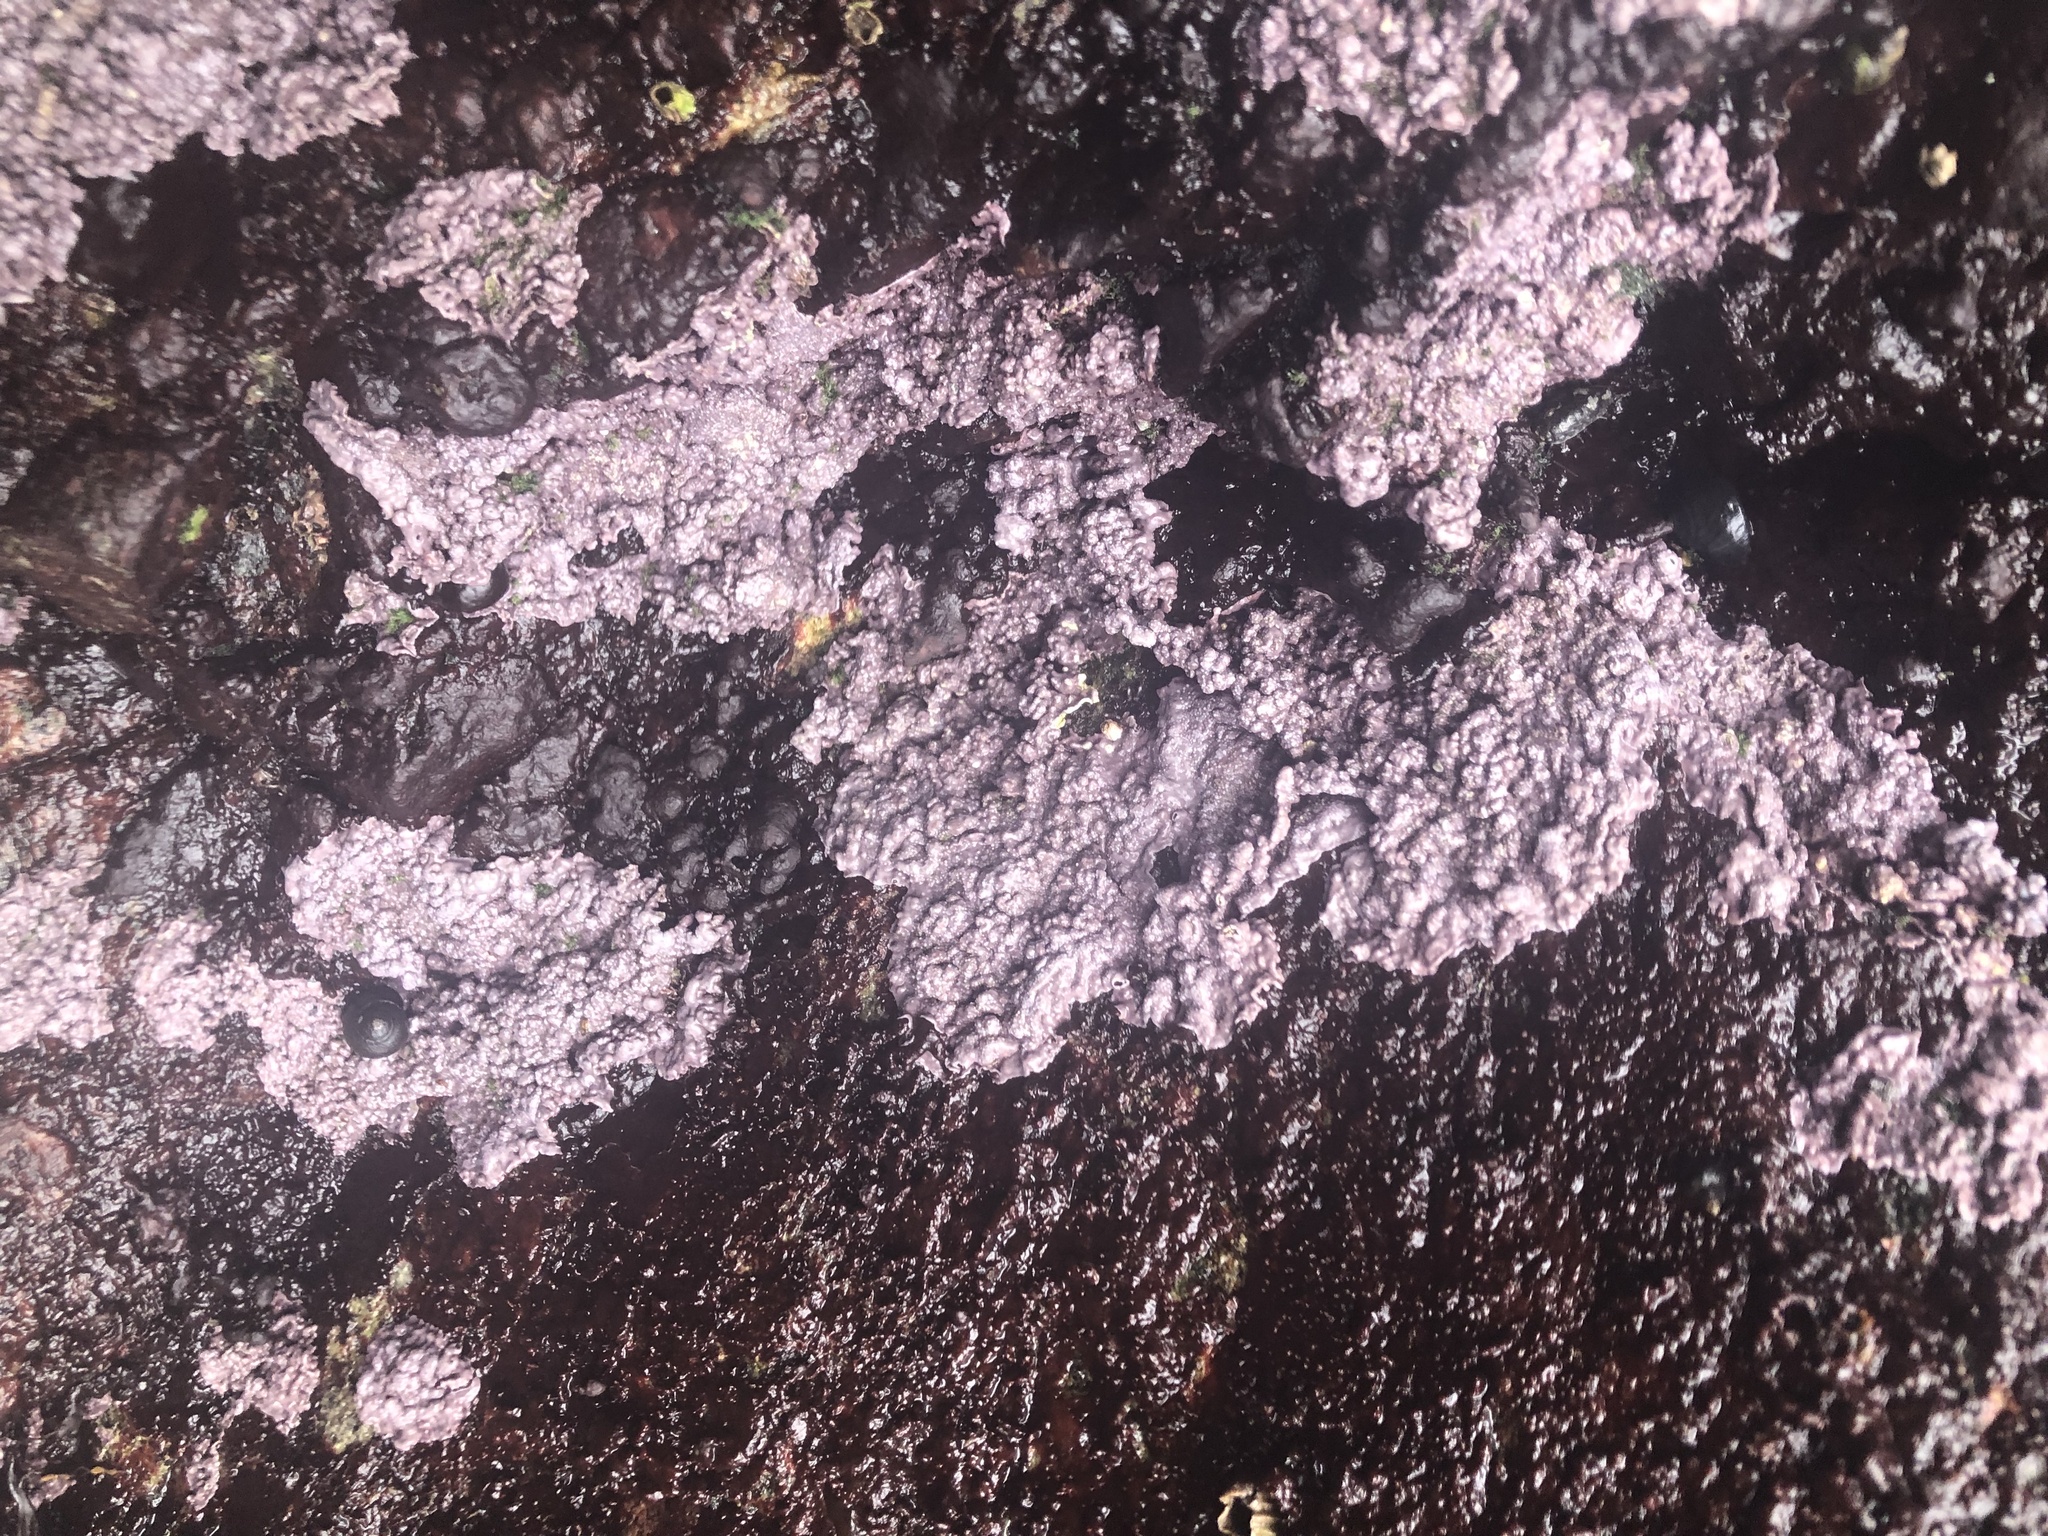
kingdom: Plantae
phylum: Rhodophyta
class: Florideophyceae
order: Corallinales
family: Corallinaceae
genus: Chamberlainium
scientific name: Chamberlainium tumidum
